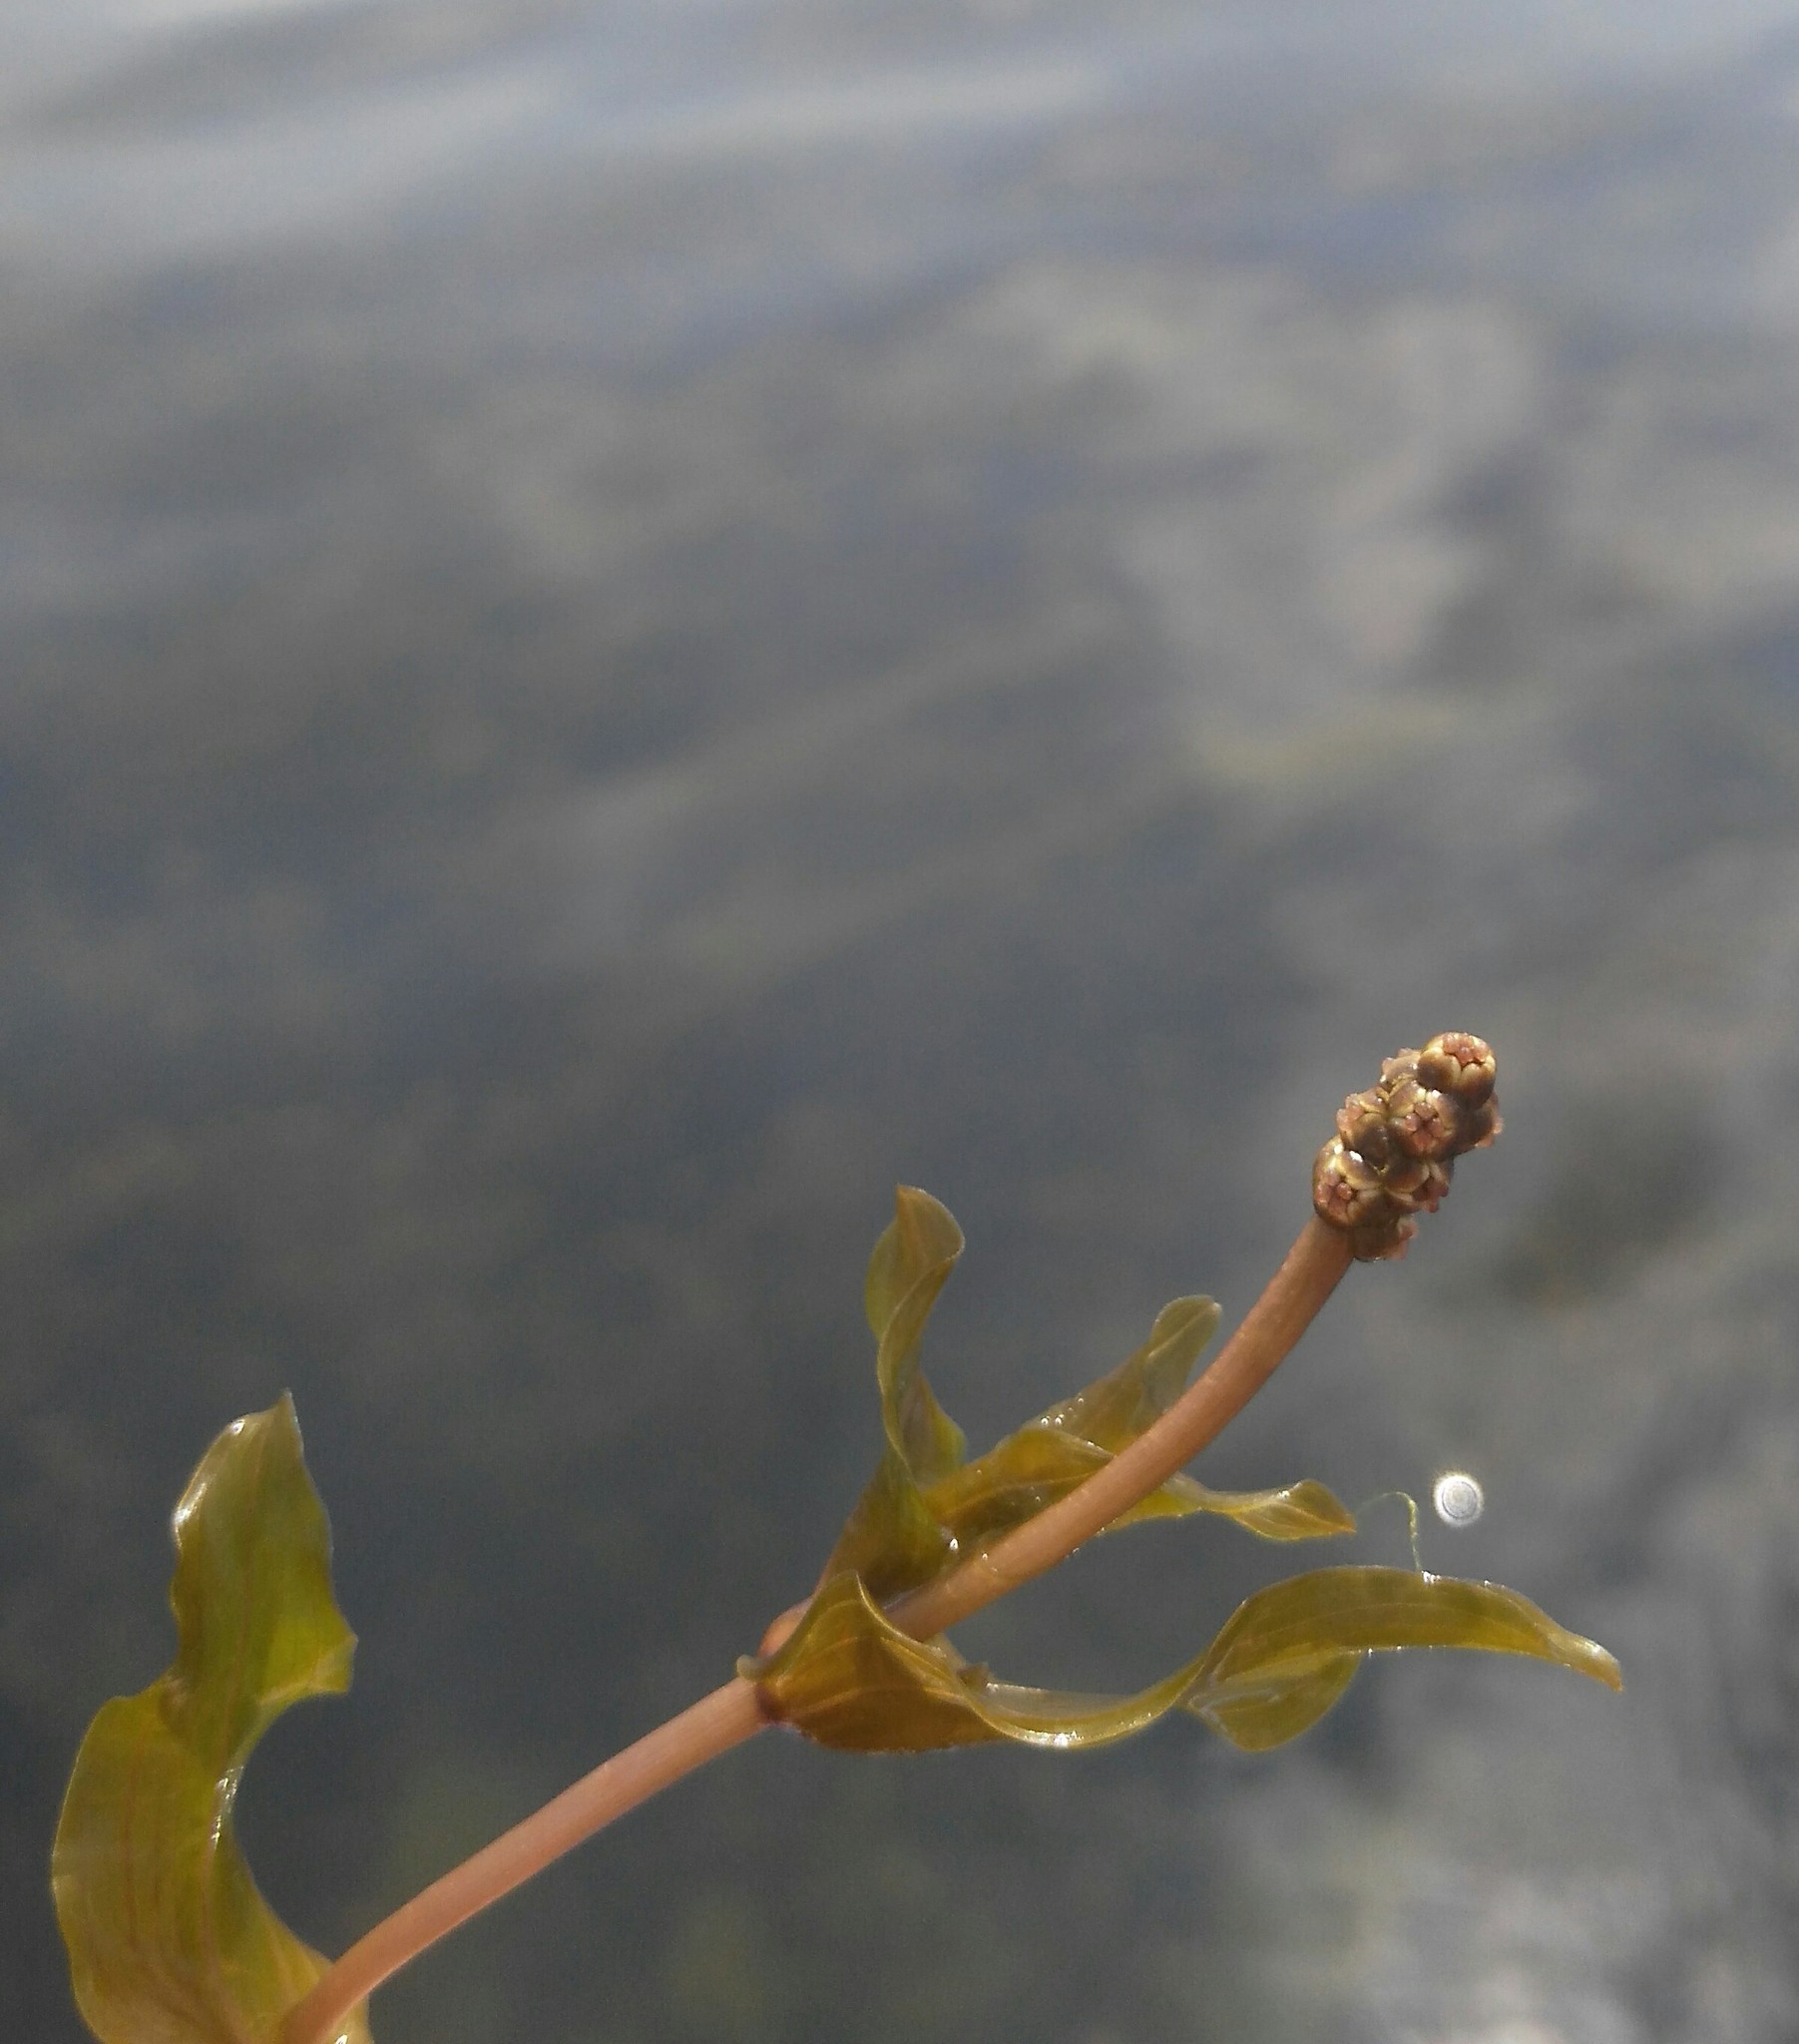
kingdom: Plantae
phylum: Tracheophyta
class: Liliopsida
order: Alismatales
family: Potamogetonaceae
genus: Potamogeton
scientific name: Potamogeton perfoliatus
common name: Perfoliate pondweed
